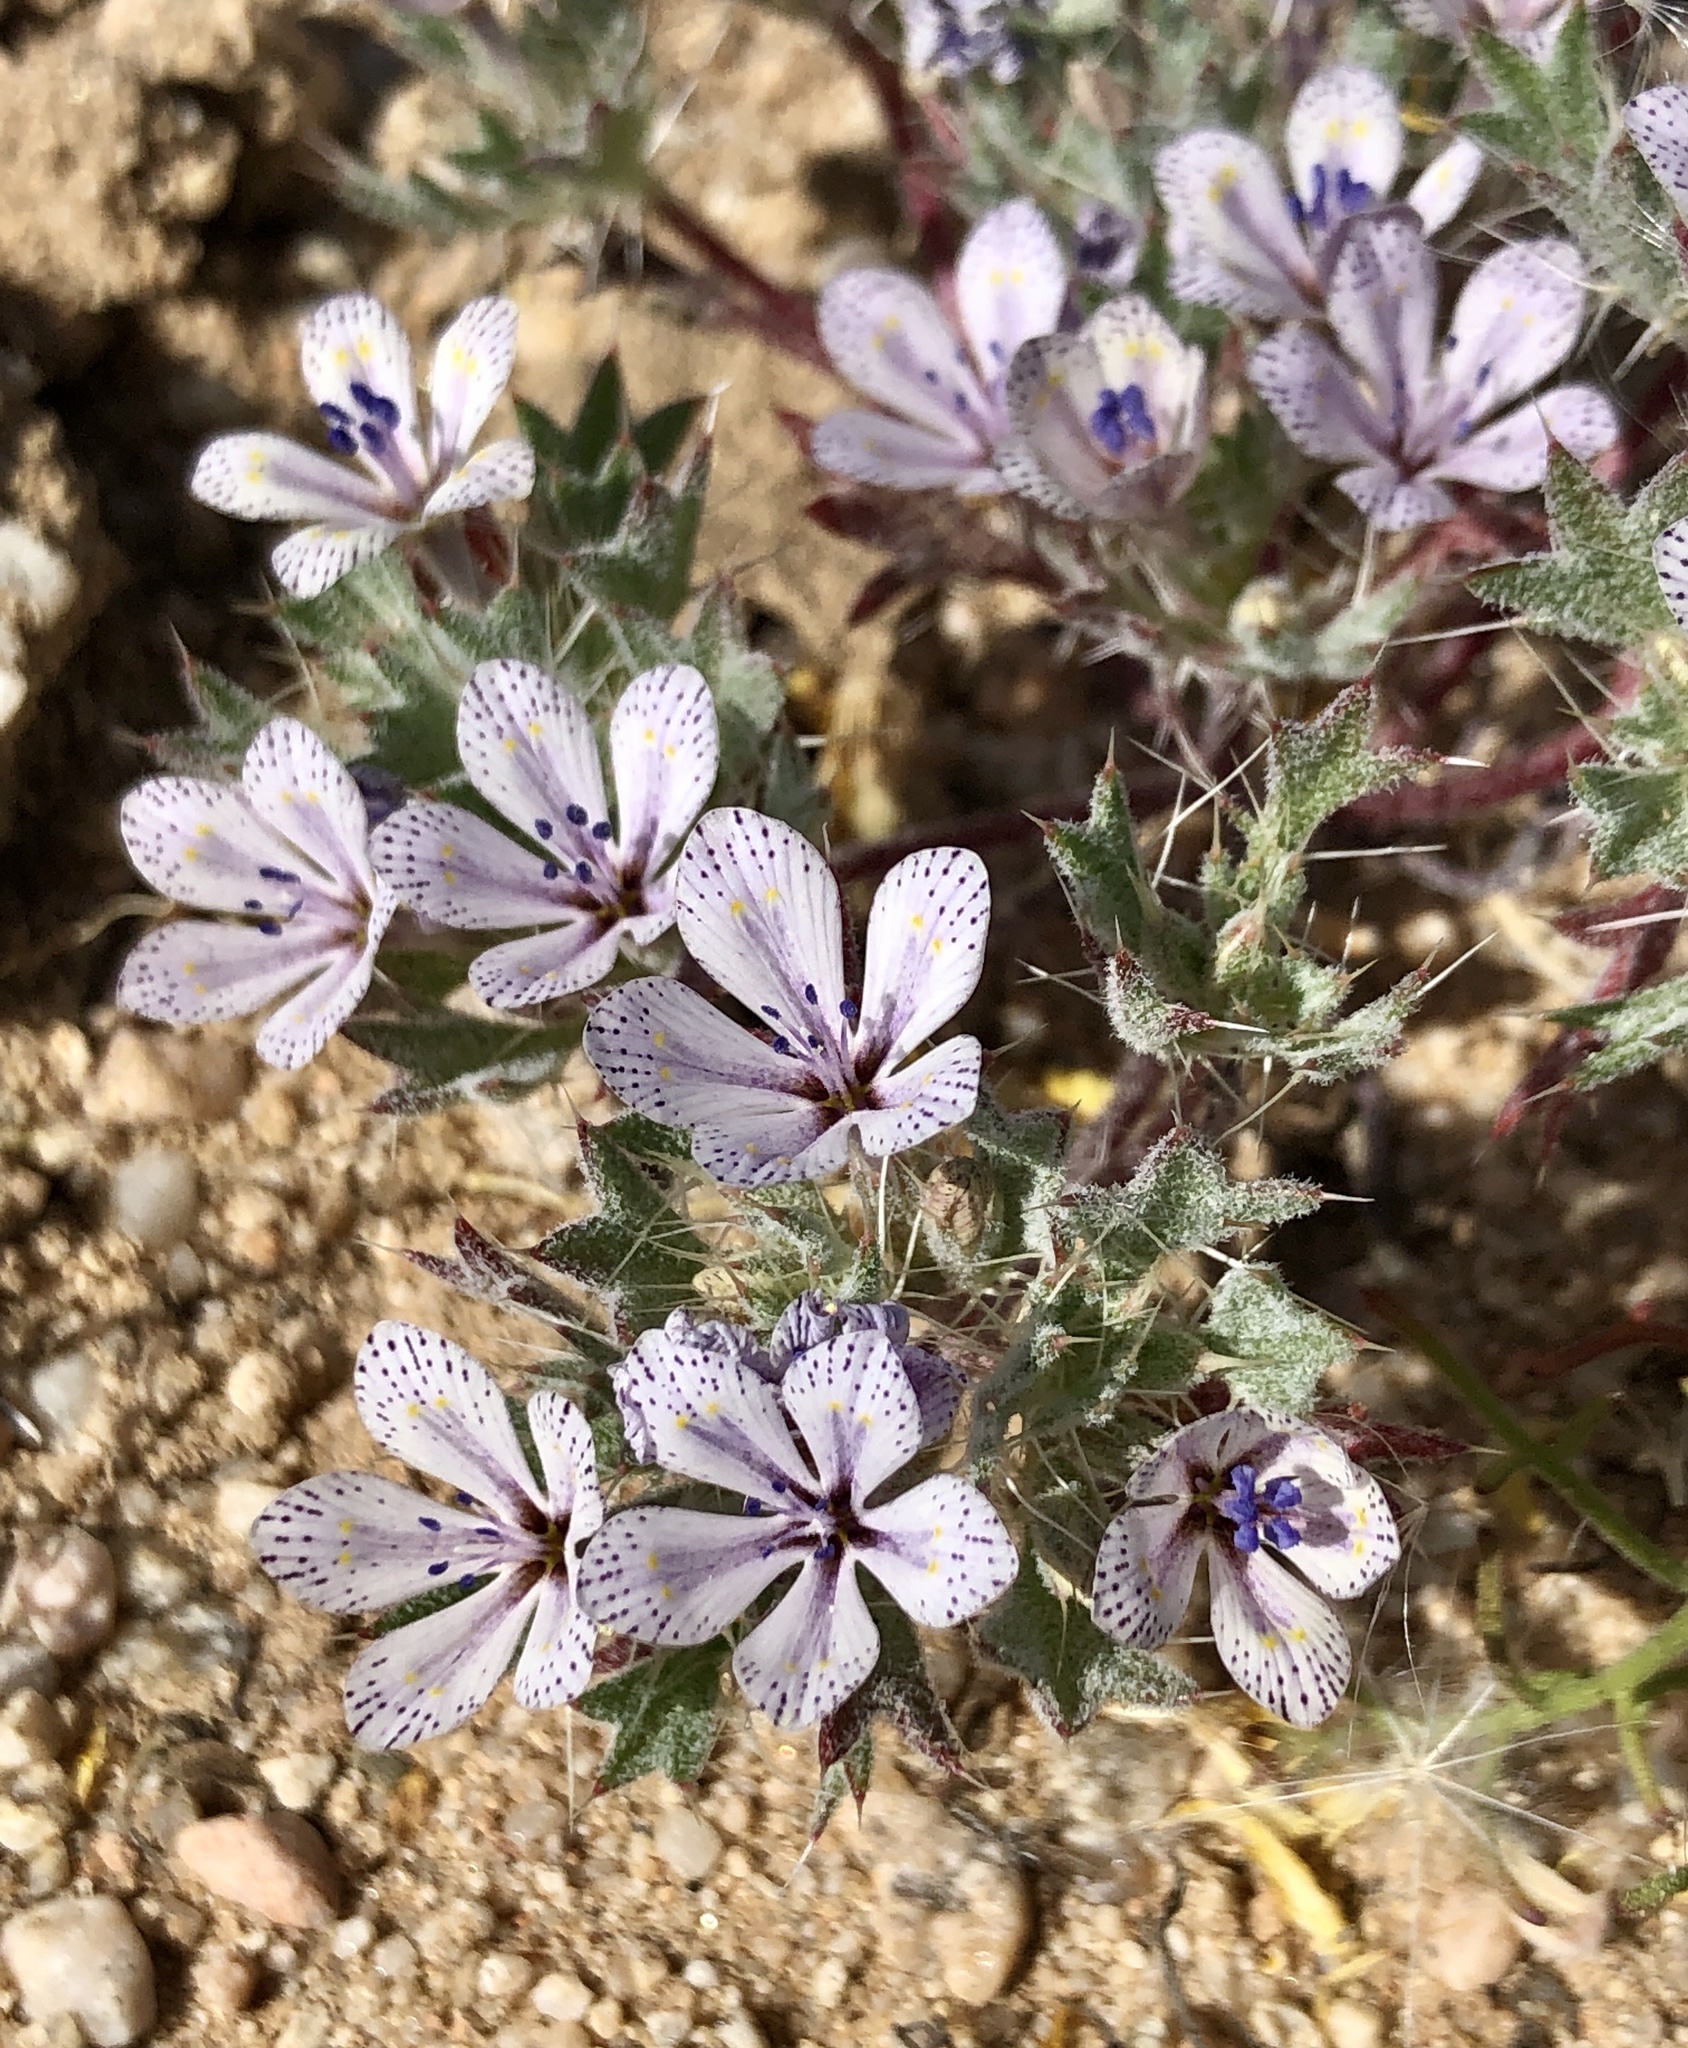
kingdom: Plantae
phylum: Tracheophyta
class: Magnoliopsida
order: Ericales
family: Polemoniaceae
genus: Langloisia
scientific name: Langloisia setosissima
